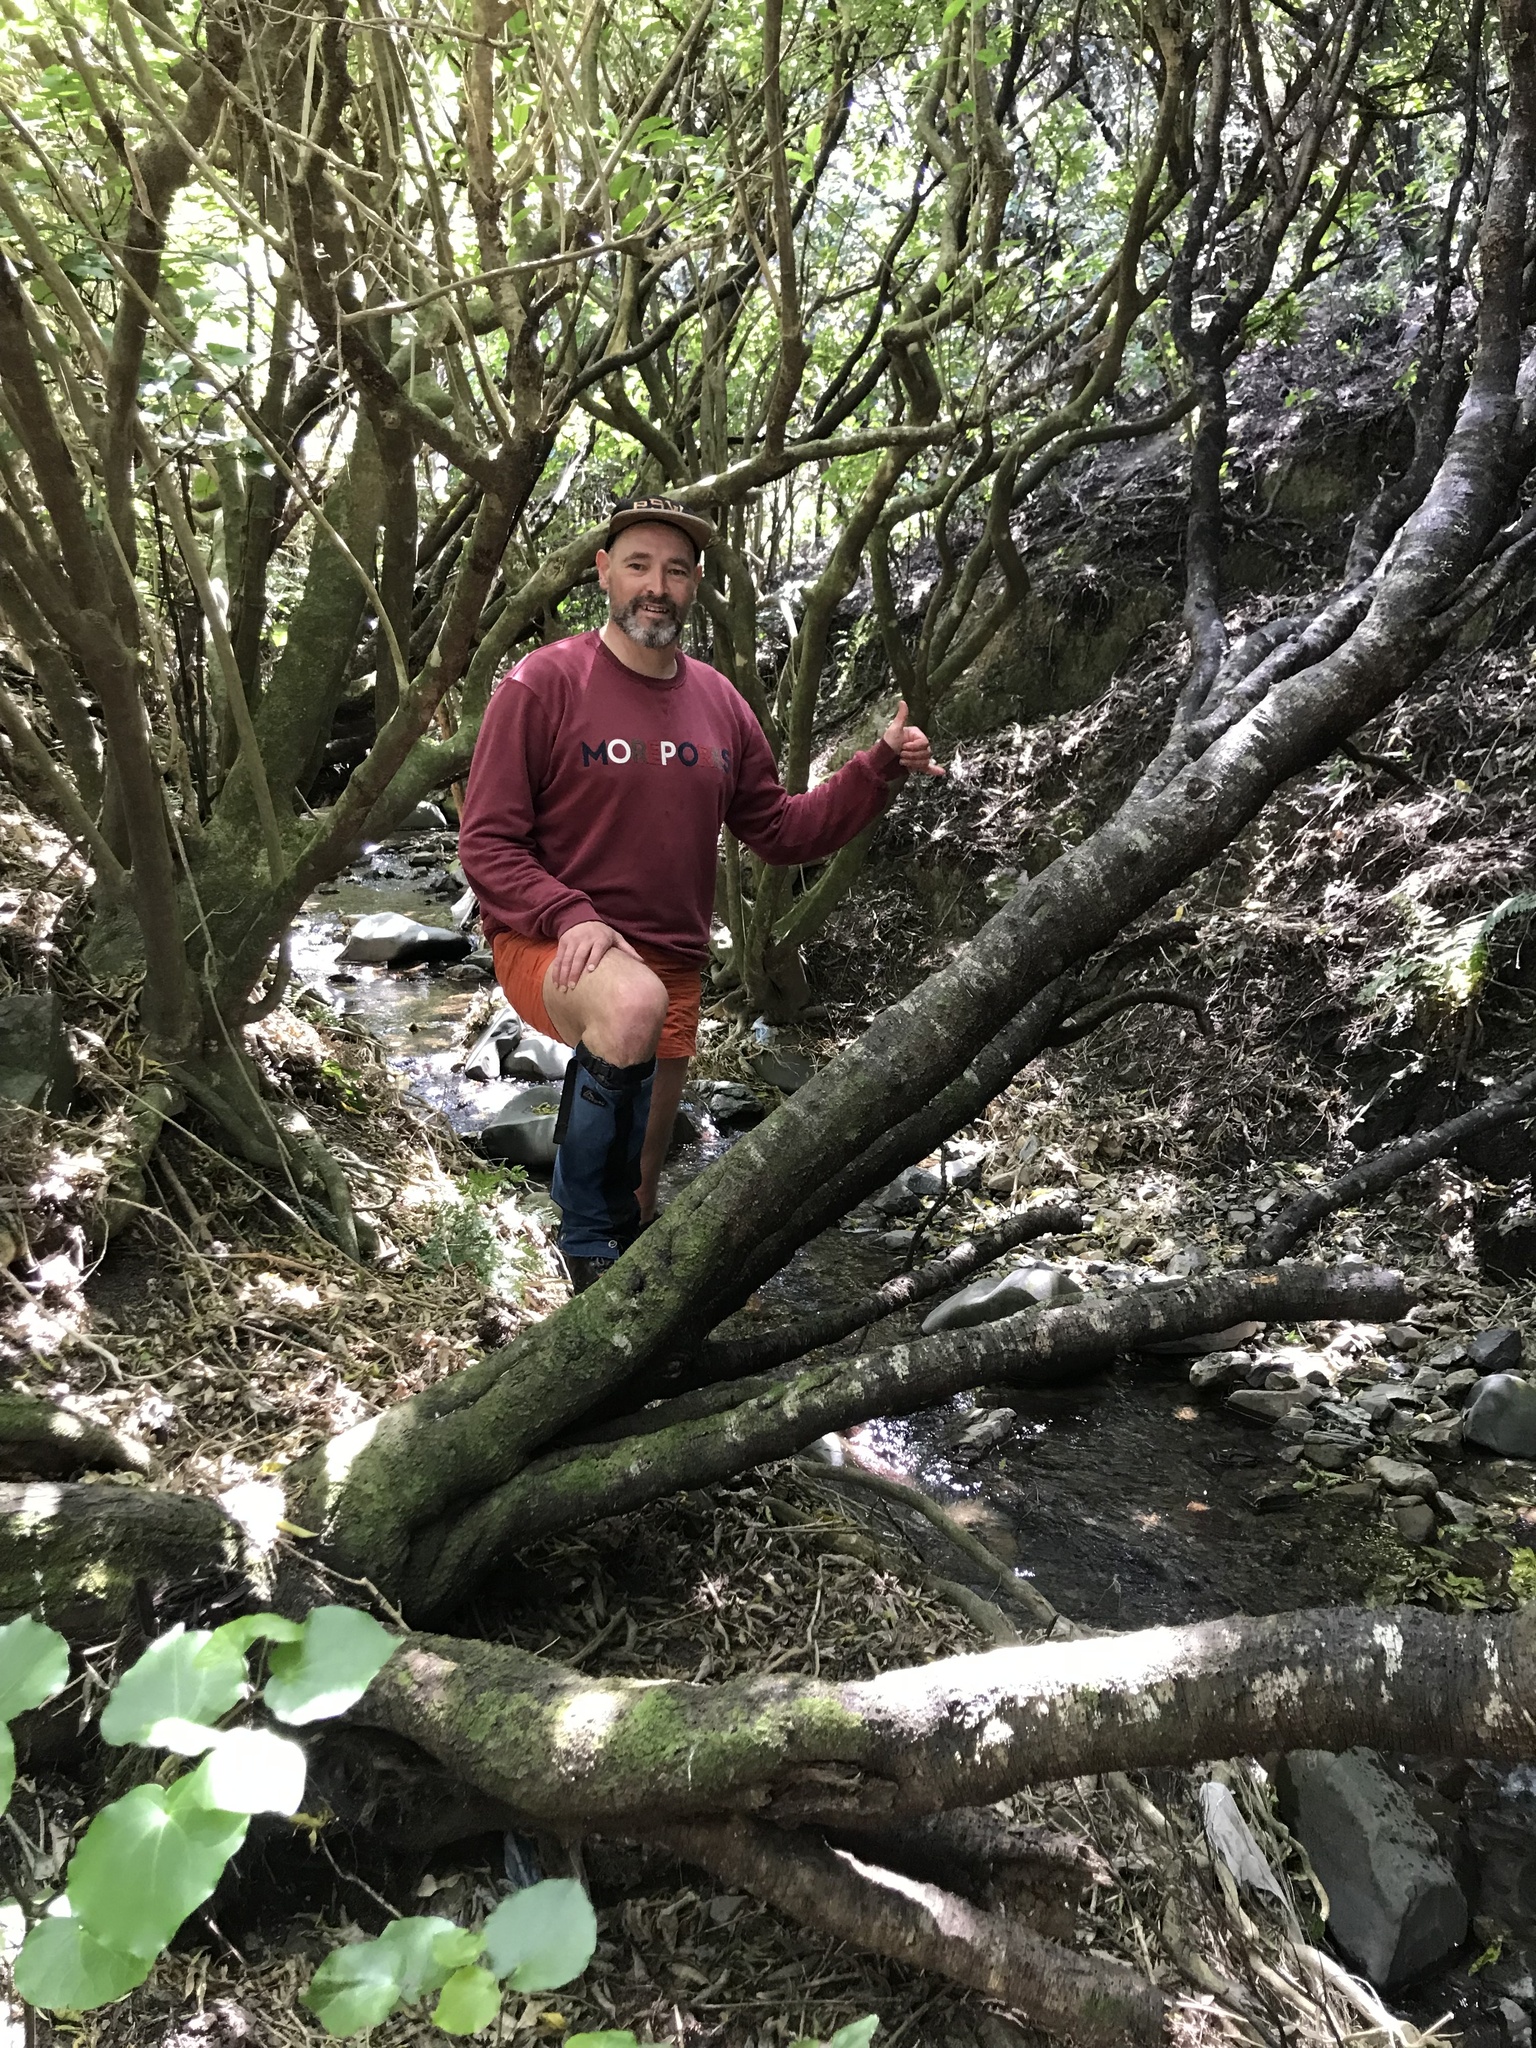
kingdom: Plantae
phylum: Tracheophyta
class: Magnoliopsida
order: Lamiales
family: Plantaginaceae
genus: Veronica
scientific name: Veronica parviflora
